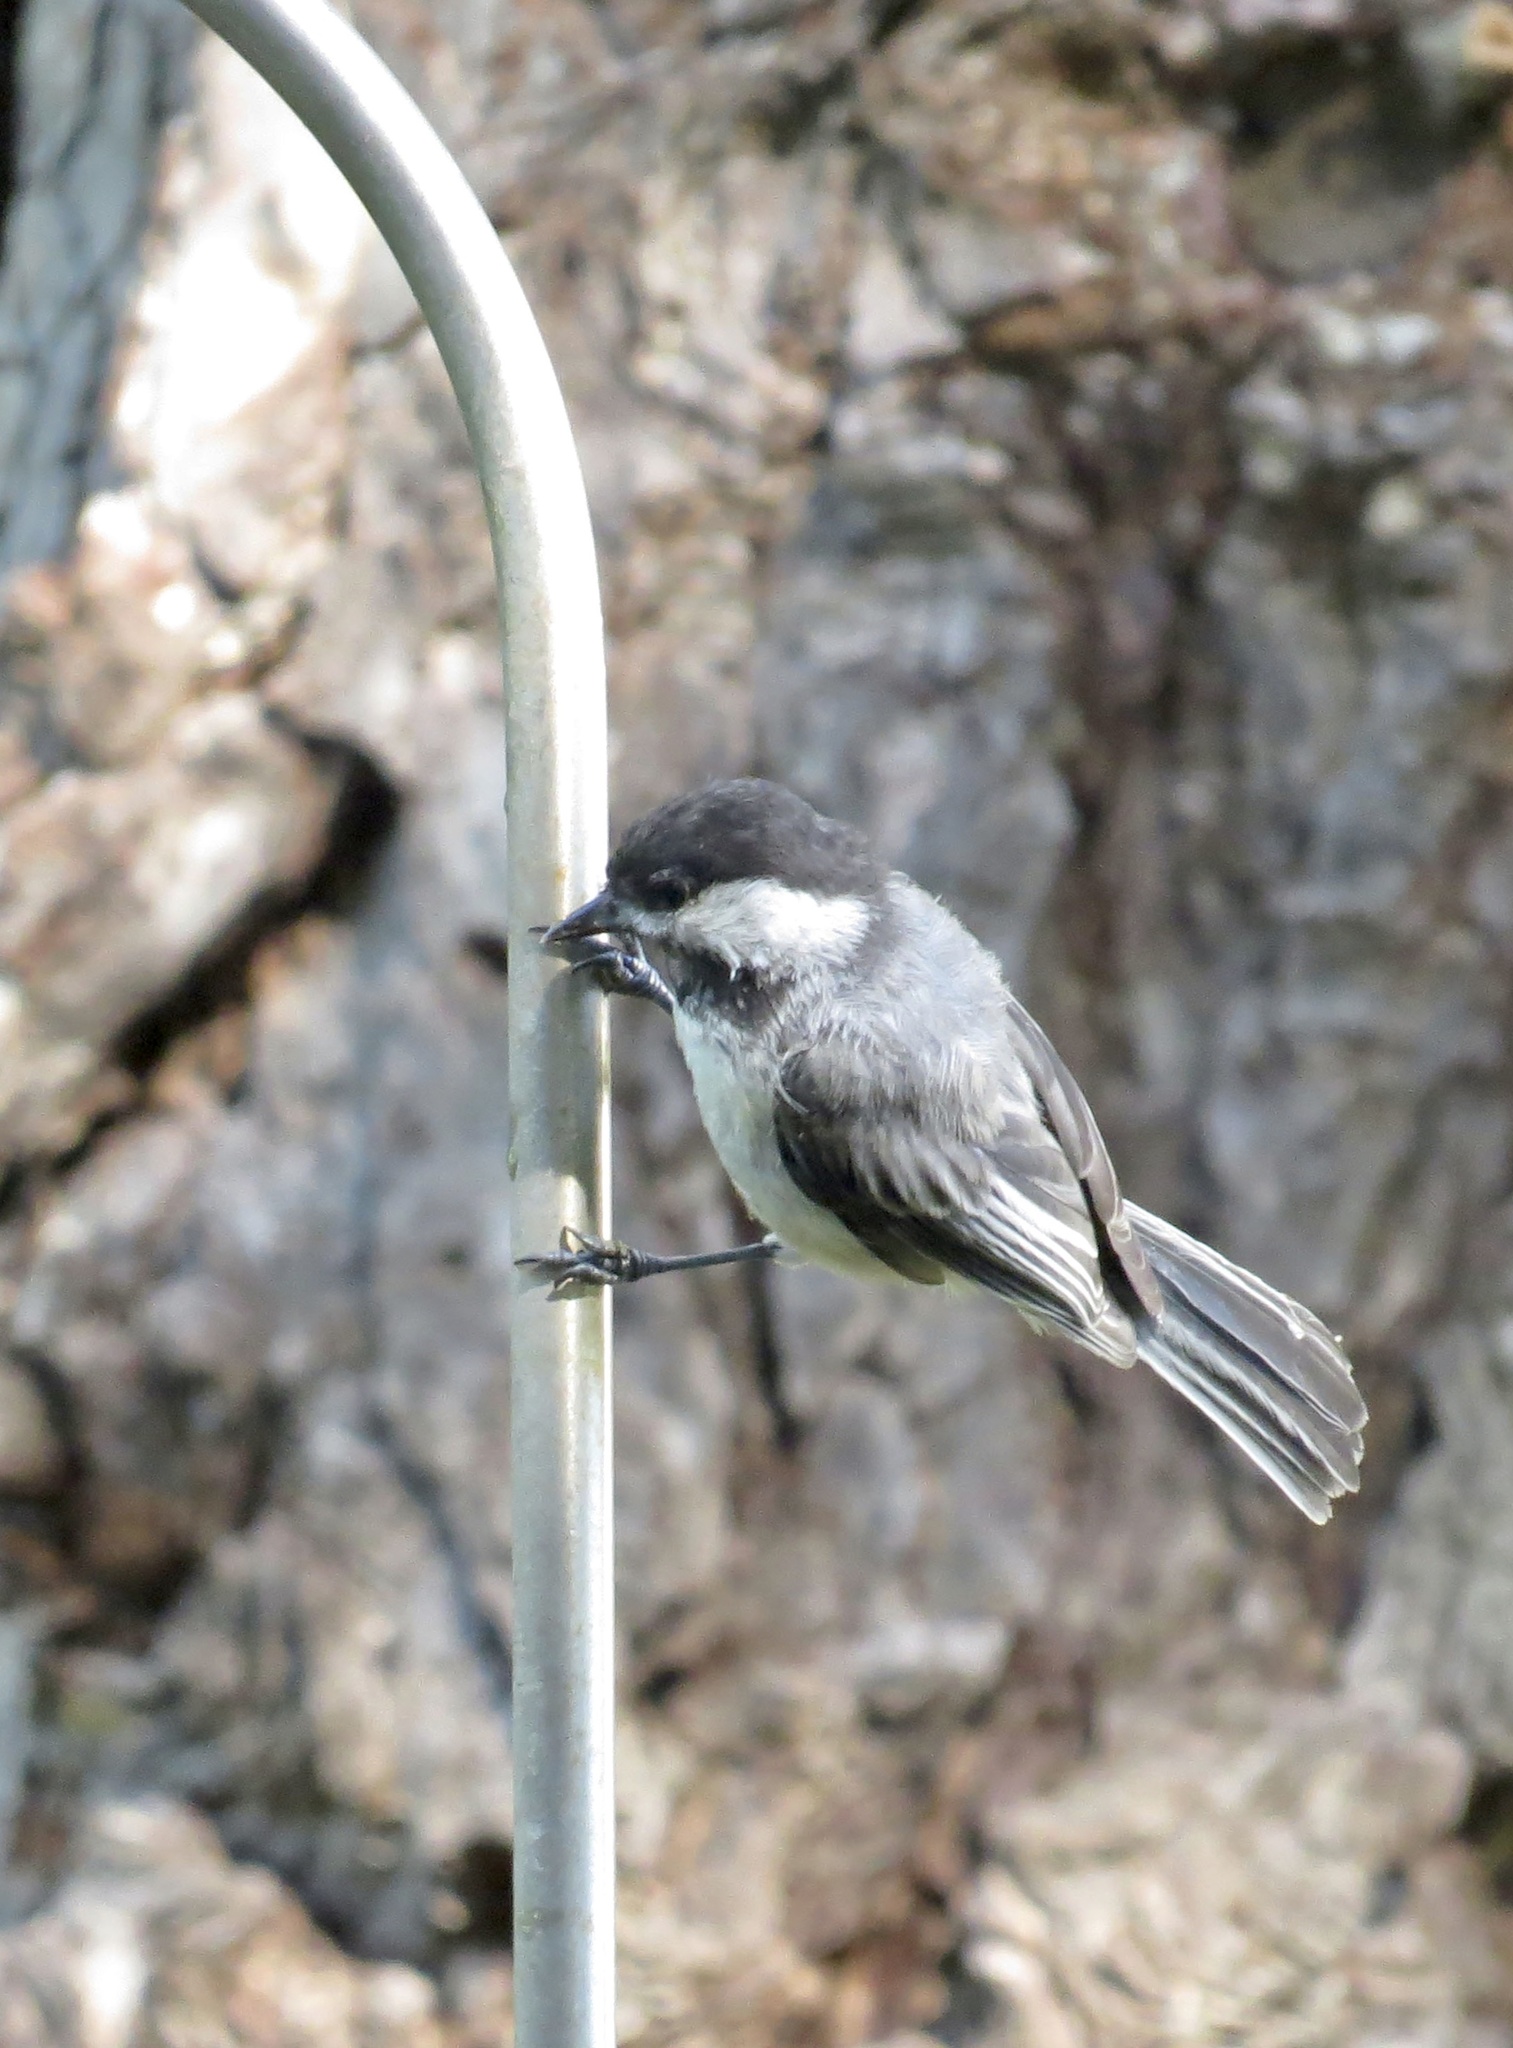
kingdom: Animalia
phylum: Chordata
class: Aves
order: Passeriformes
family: Paridae
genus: Poecile
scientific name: Poecile atricapillus
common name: Black-capped chickadee
